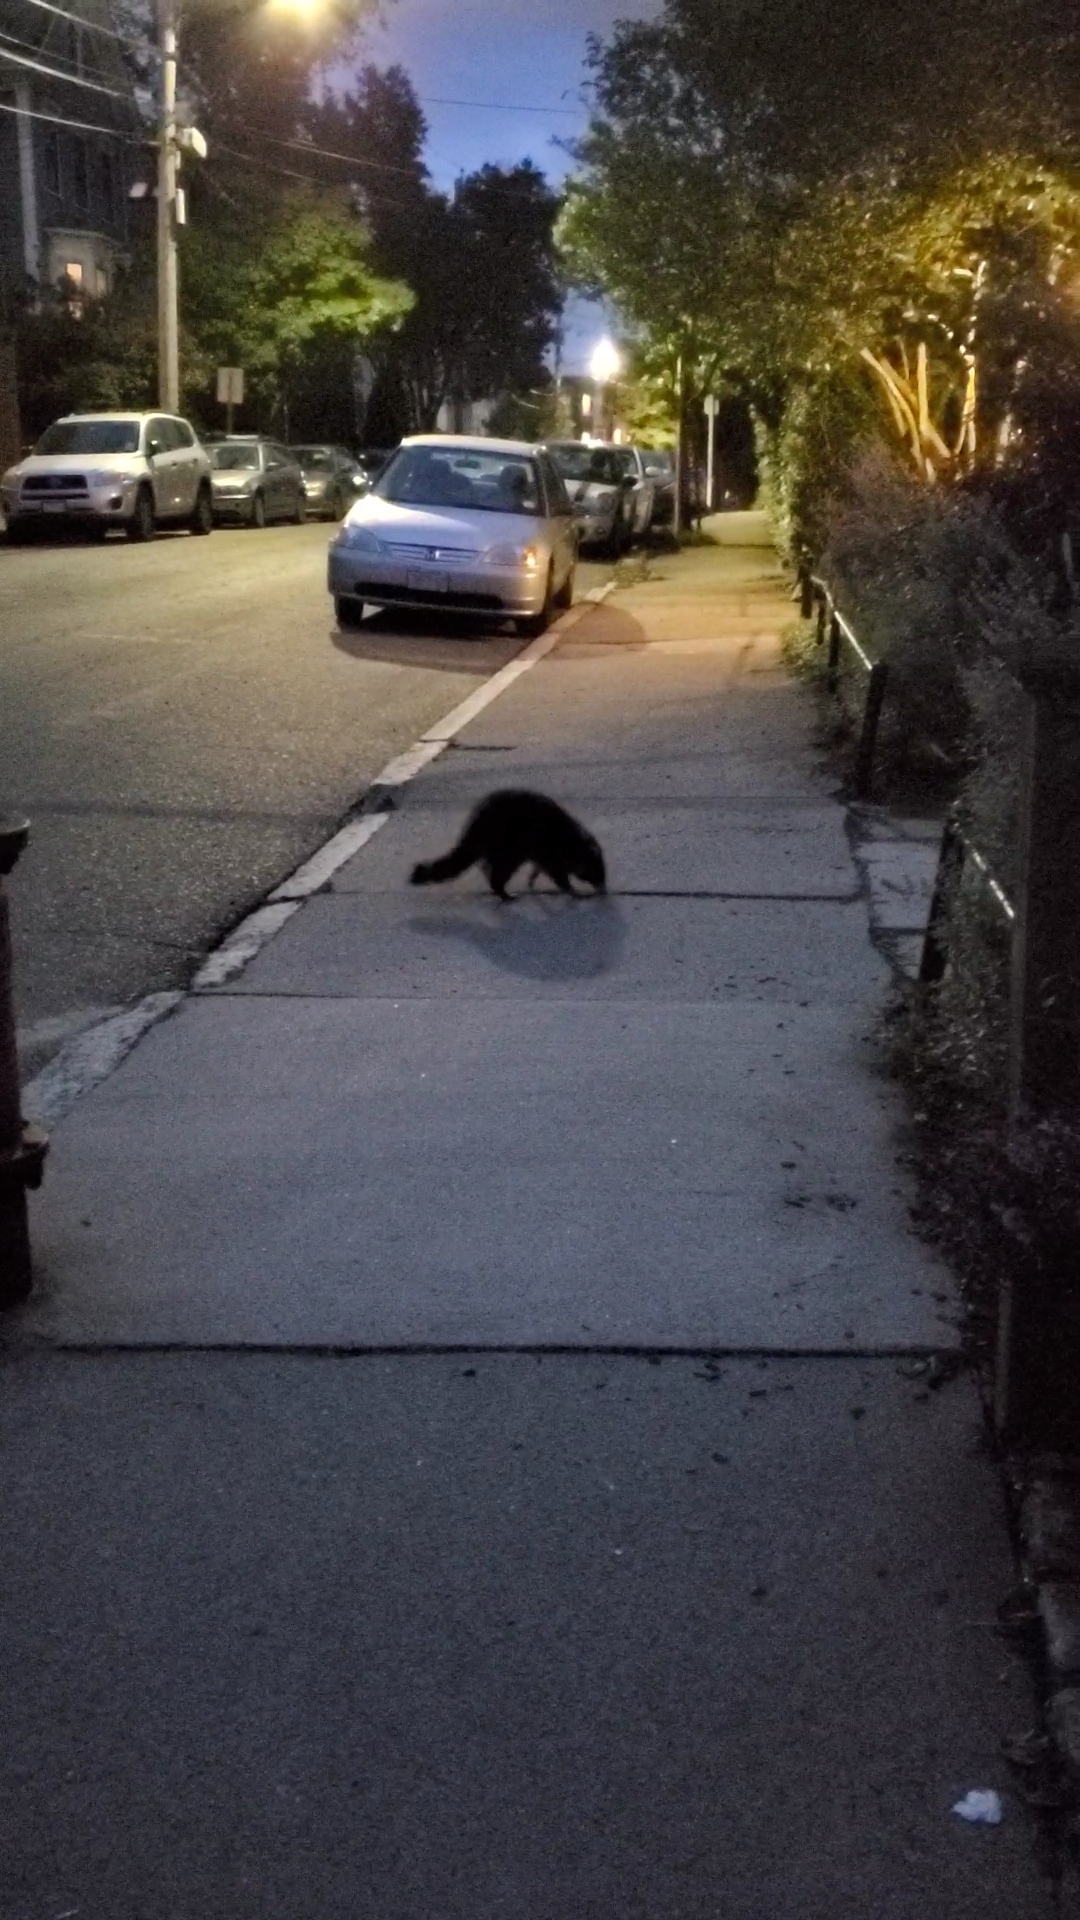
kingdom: Animalia
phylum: Chordata
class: Mammalia
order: Carnivora
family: Procyonidae
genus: Procyon
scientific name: Procyon lotor
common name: Raccoon
